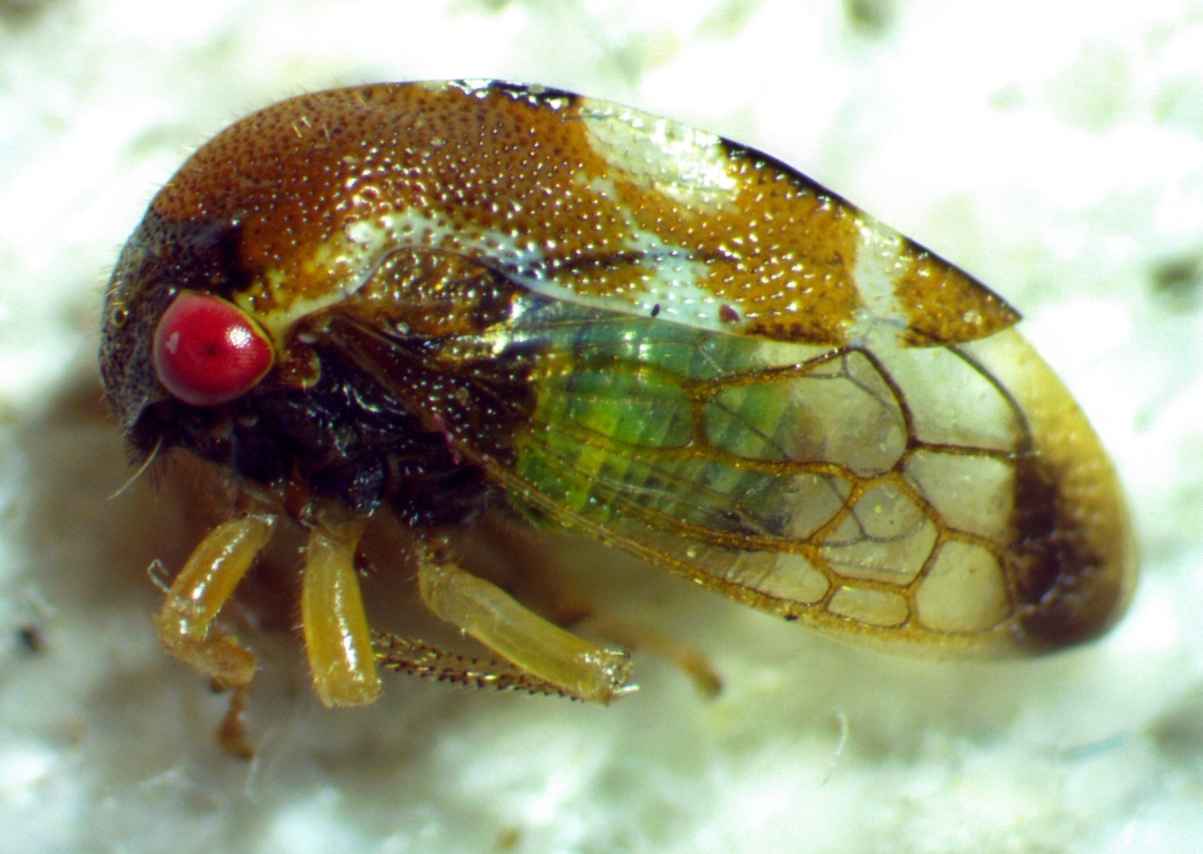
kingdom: Animalia
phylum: Arthropoda
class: Insecta
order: Hemiptera
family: Membracidae
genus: Cyrtolobus
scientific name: Cyrtolobus togatus
